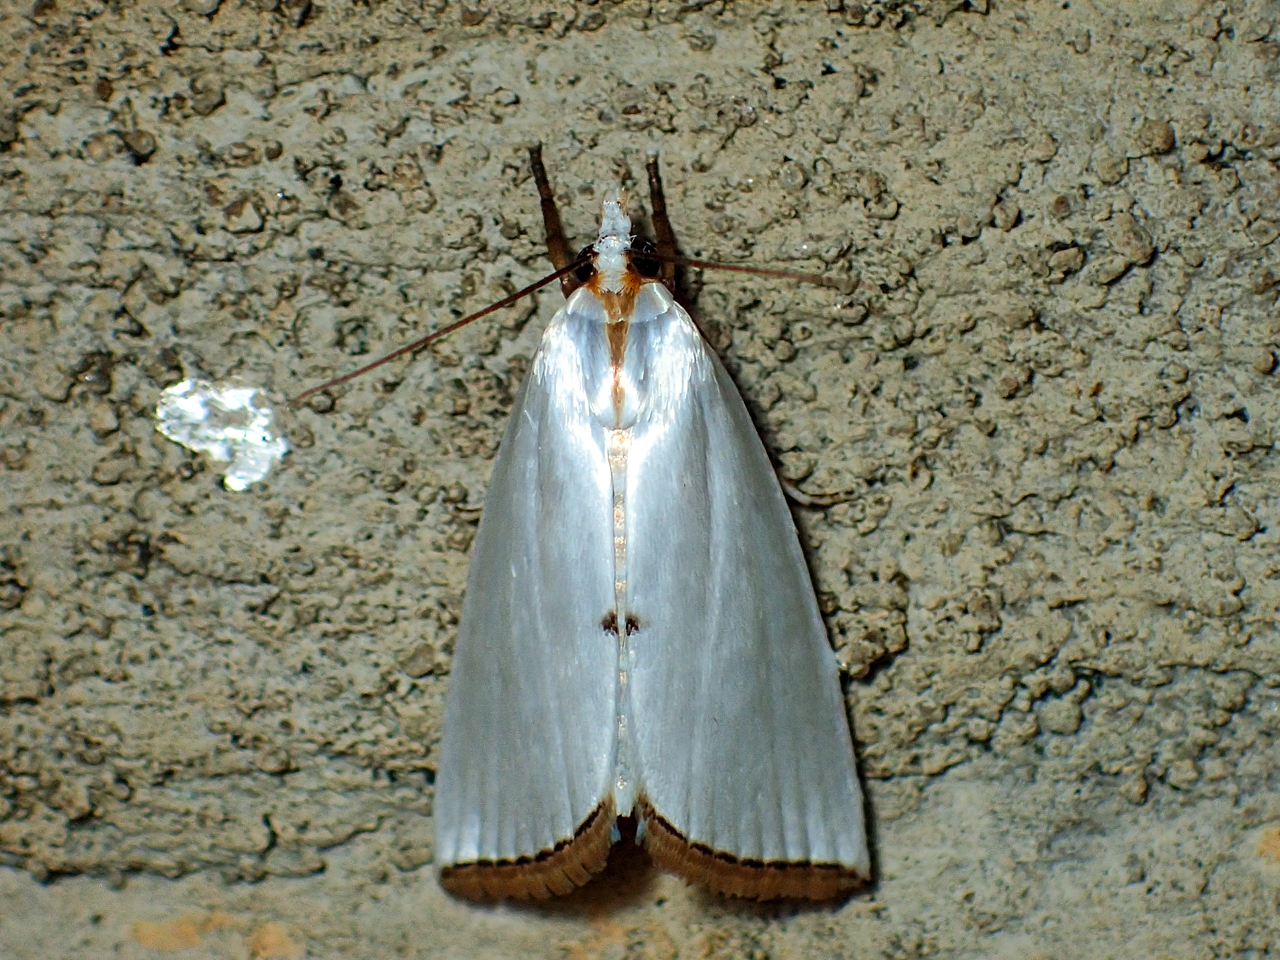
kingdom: Animalia
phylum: Arthropoda
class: Insecta
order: Lepidoptera
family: Crambidae
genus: Argyria
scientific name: Argyria nivalis
